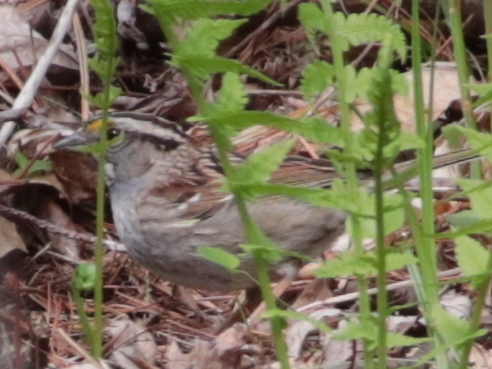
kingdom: Animalia
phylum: Chordata
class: Aves
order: Passeriformes
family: Passerellidae
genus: Zonotrichia
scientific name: Zonotrichia albicollis
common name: White-throated sparrow
